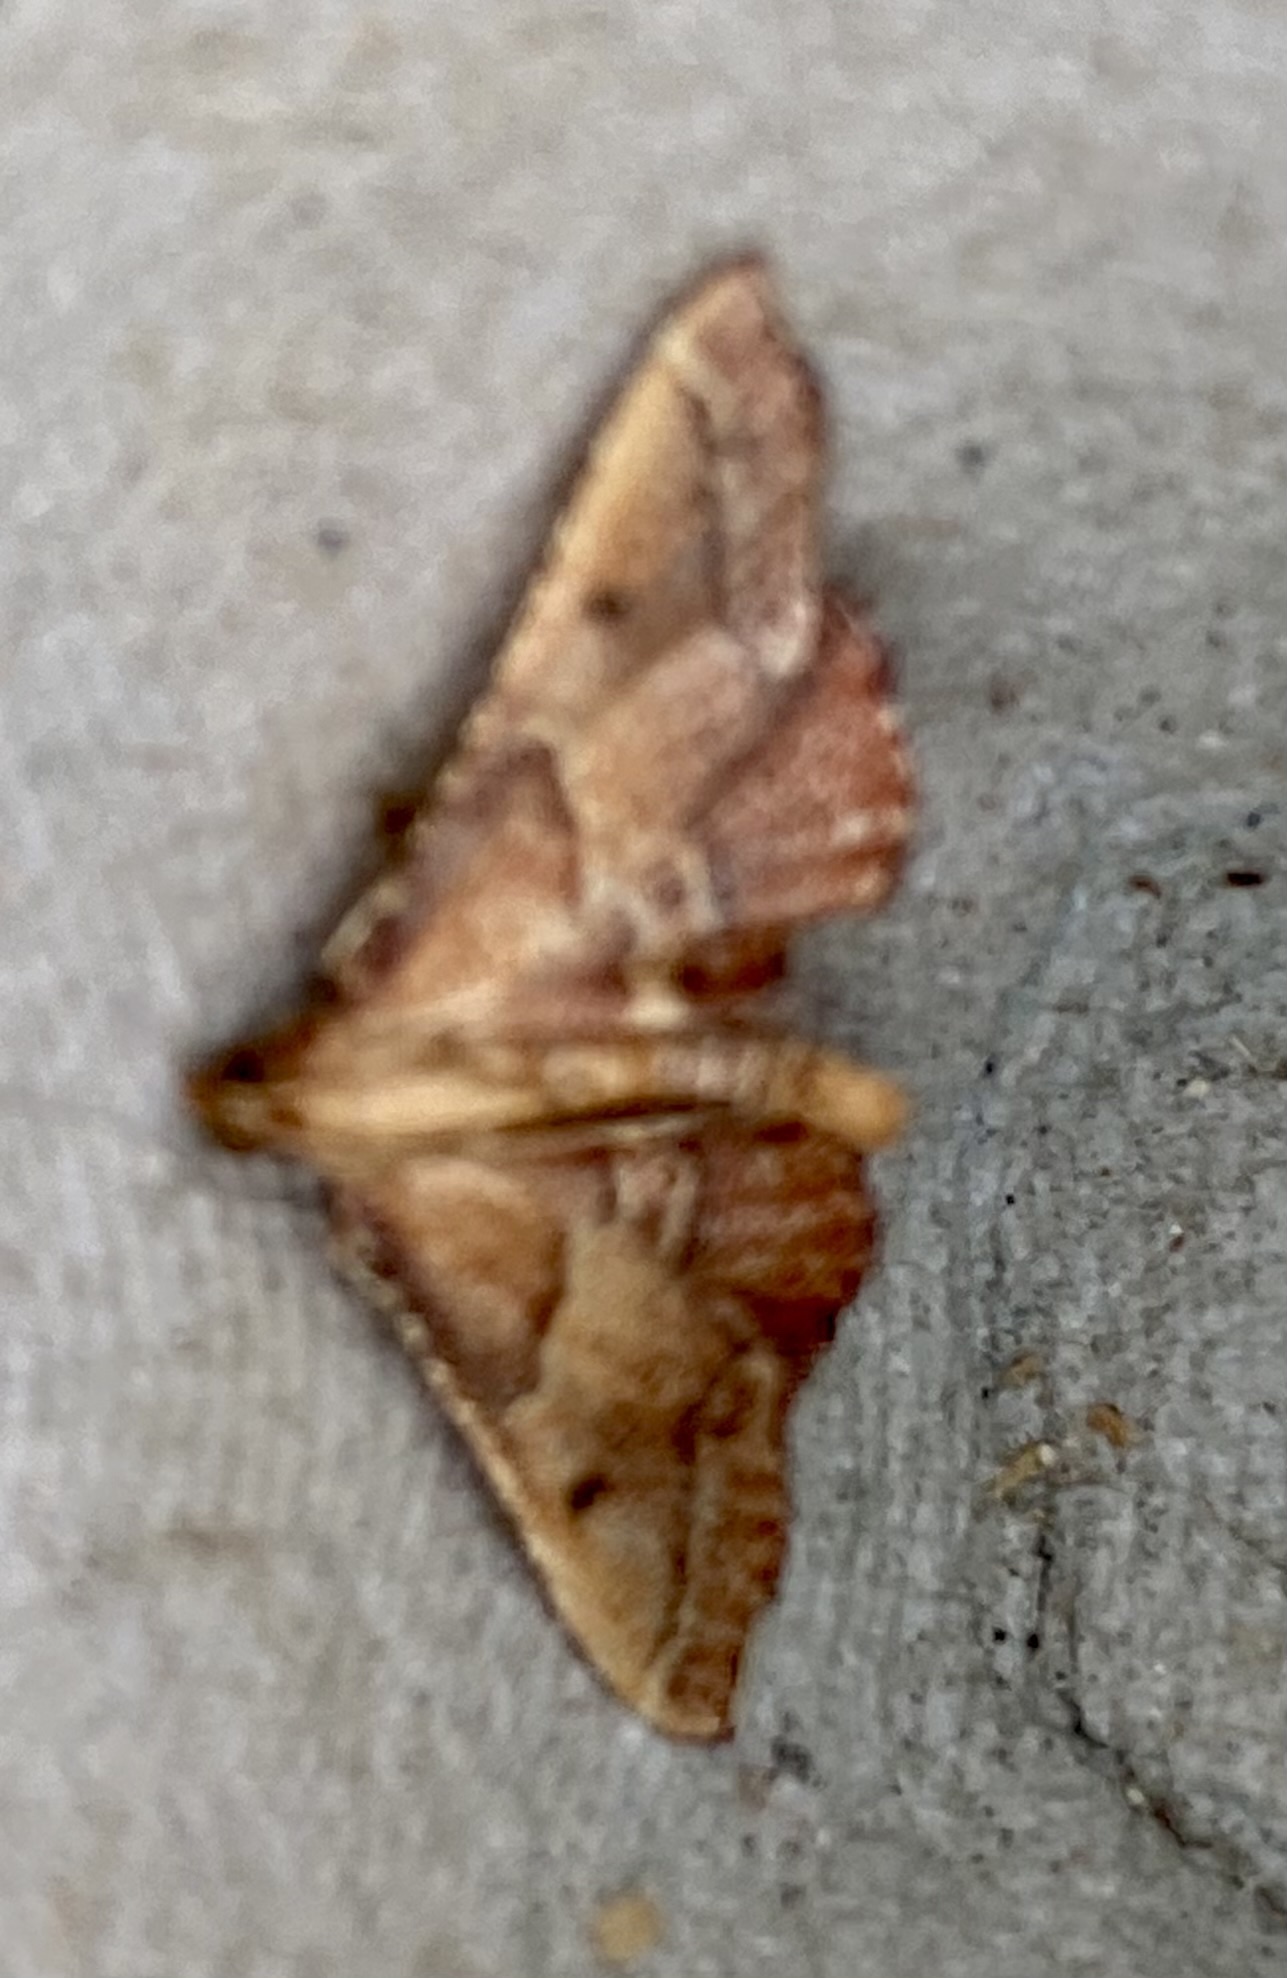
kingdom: Animalia
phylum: Arthropoda
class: Insecta
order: Lepidoptera
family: Pyralidae
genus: Endotricha
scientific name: Endotricha flammealis
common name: Rosy tabby
